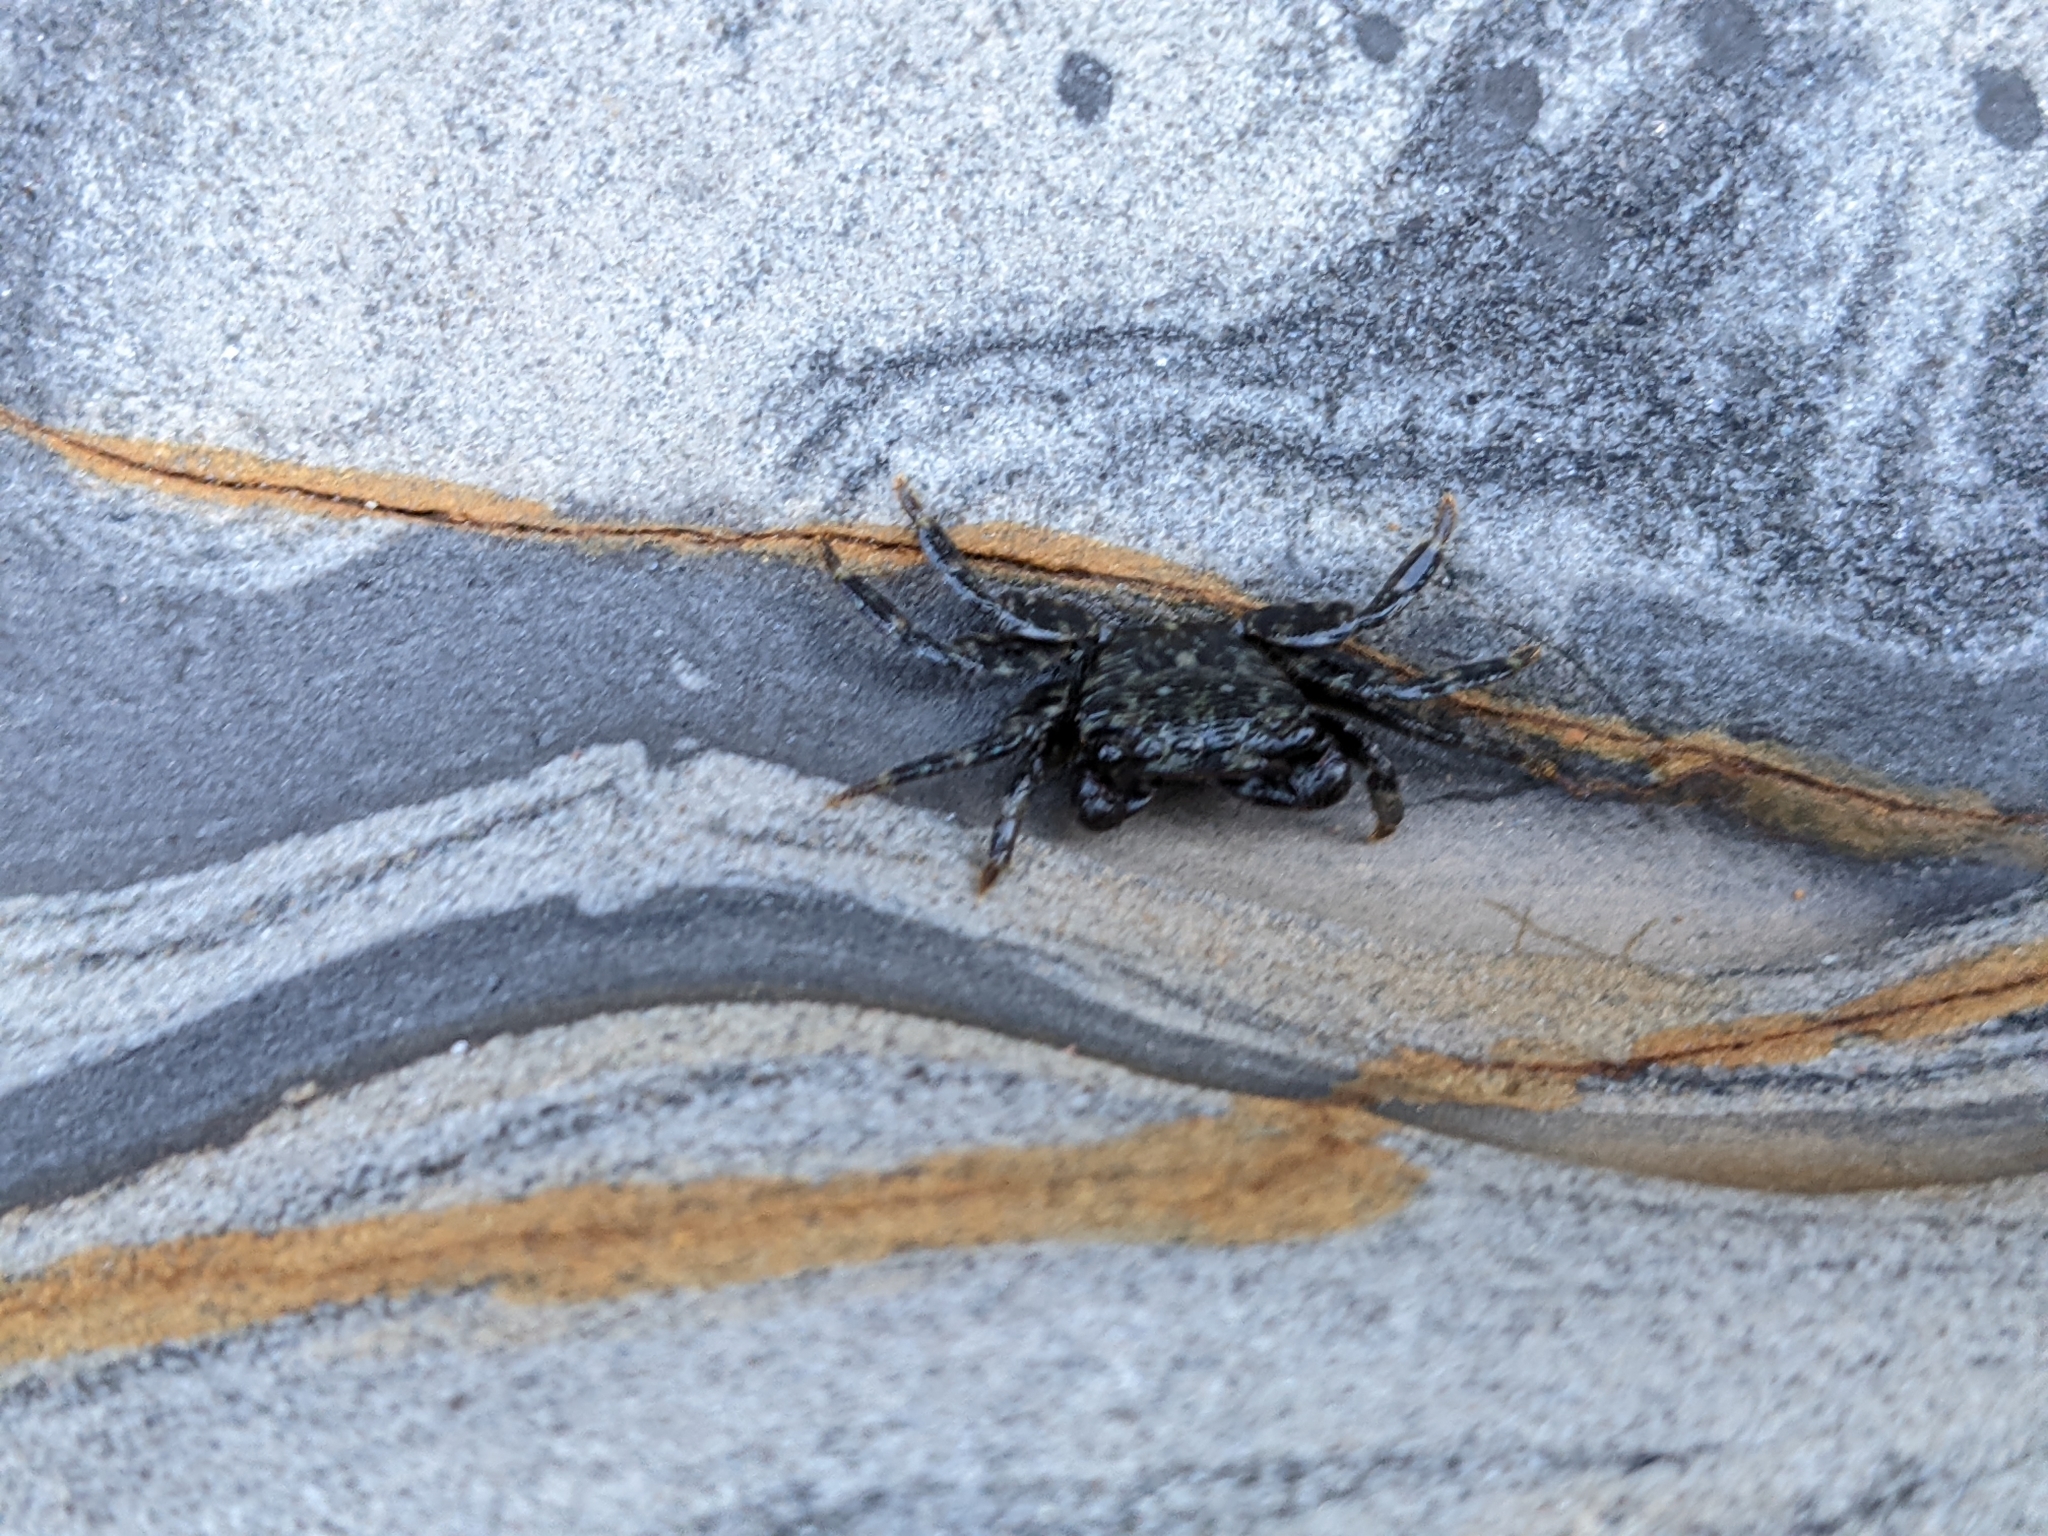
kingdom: Animalia
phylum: Arthropoda
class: Malacostraca
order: Decapoda
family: Grapsidae
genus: Pachygrapsus
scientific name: Pachygrapsus crassipes
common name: Striped shore crab
